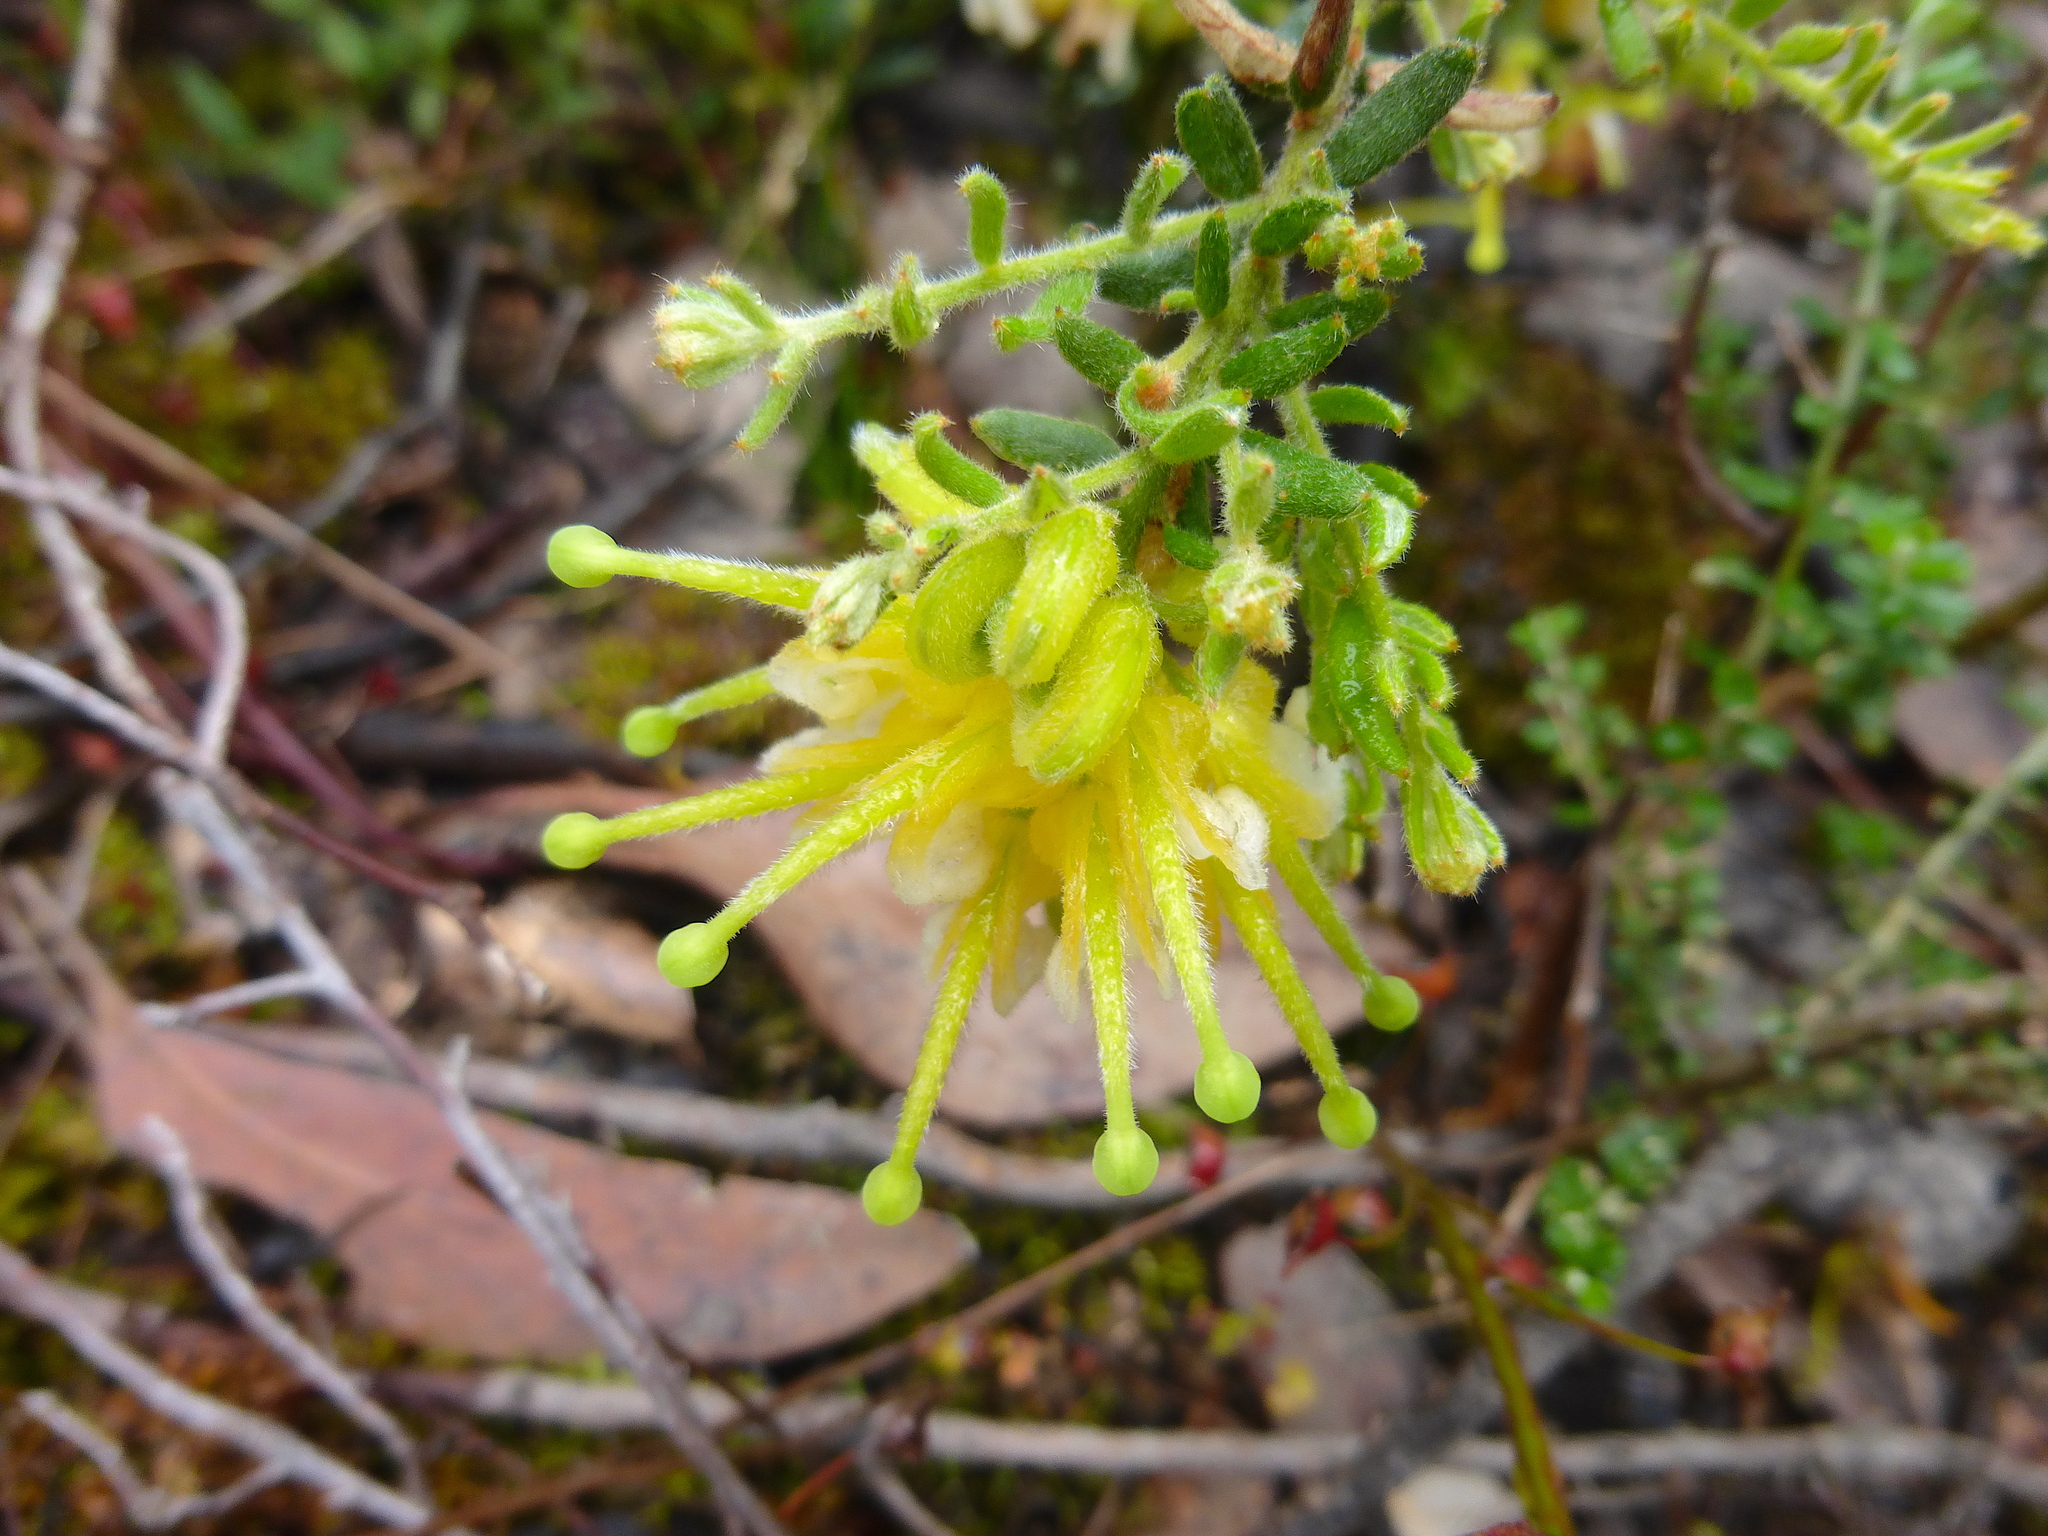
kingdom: Plantae
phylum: Tracheophyta
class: Magnoliopsida
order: Proteales
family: Proteaceae
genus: Grevillea
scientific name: Grevillea alpina
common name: Catclaws grevillea
